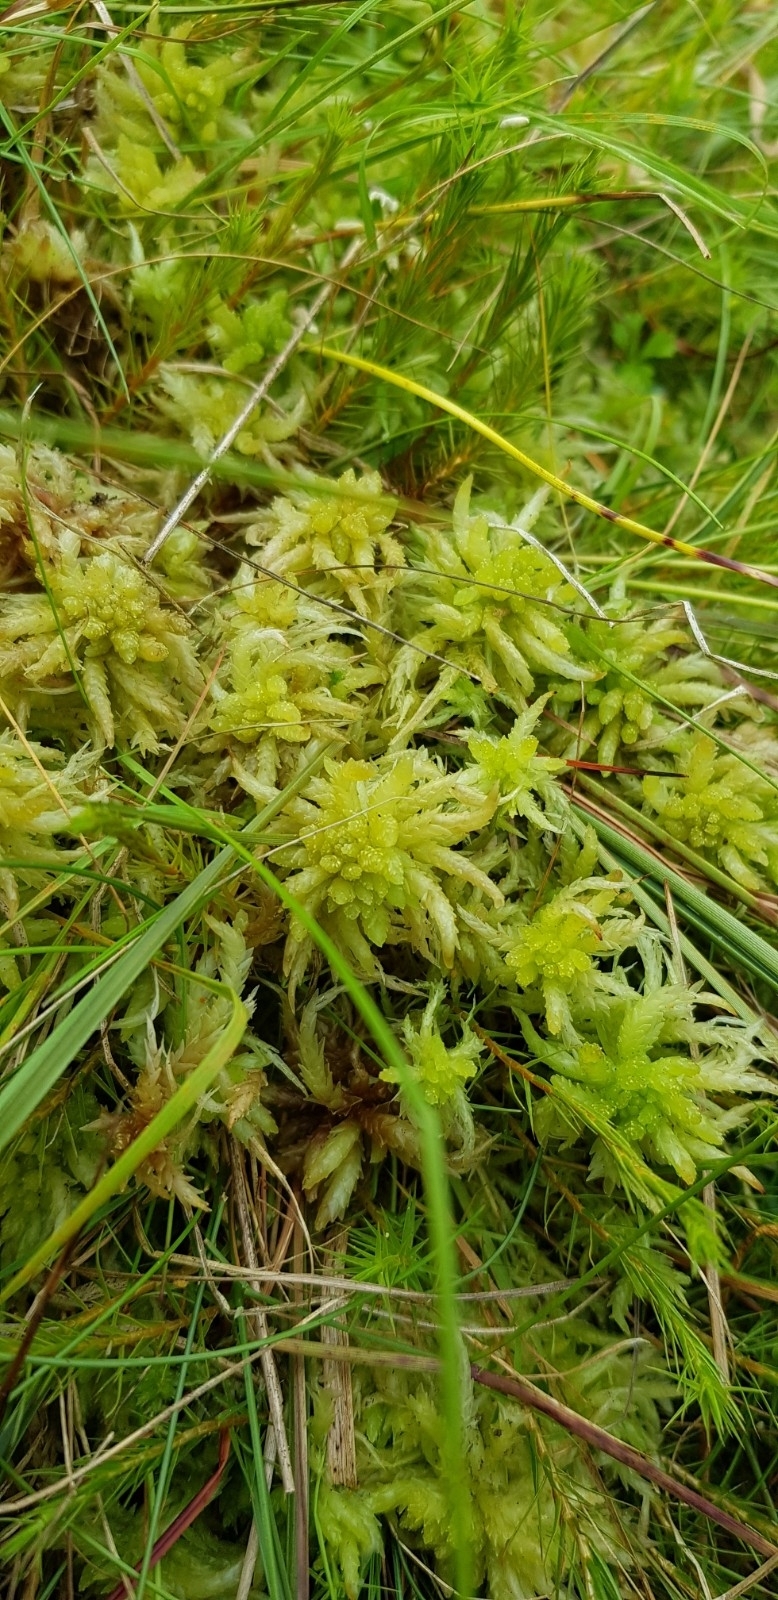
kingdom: Plantae
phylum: Bryophyta
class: Sphagnopsida
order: Sphagnales
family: Sphagnaceae
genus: Sphagnum
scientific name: Sphagnum palustre
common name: Blunt-leaved bog-moss
